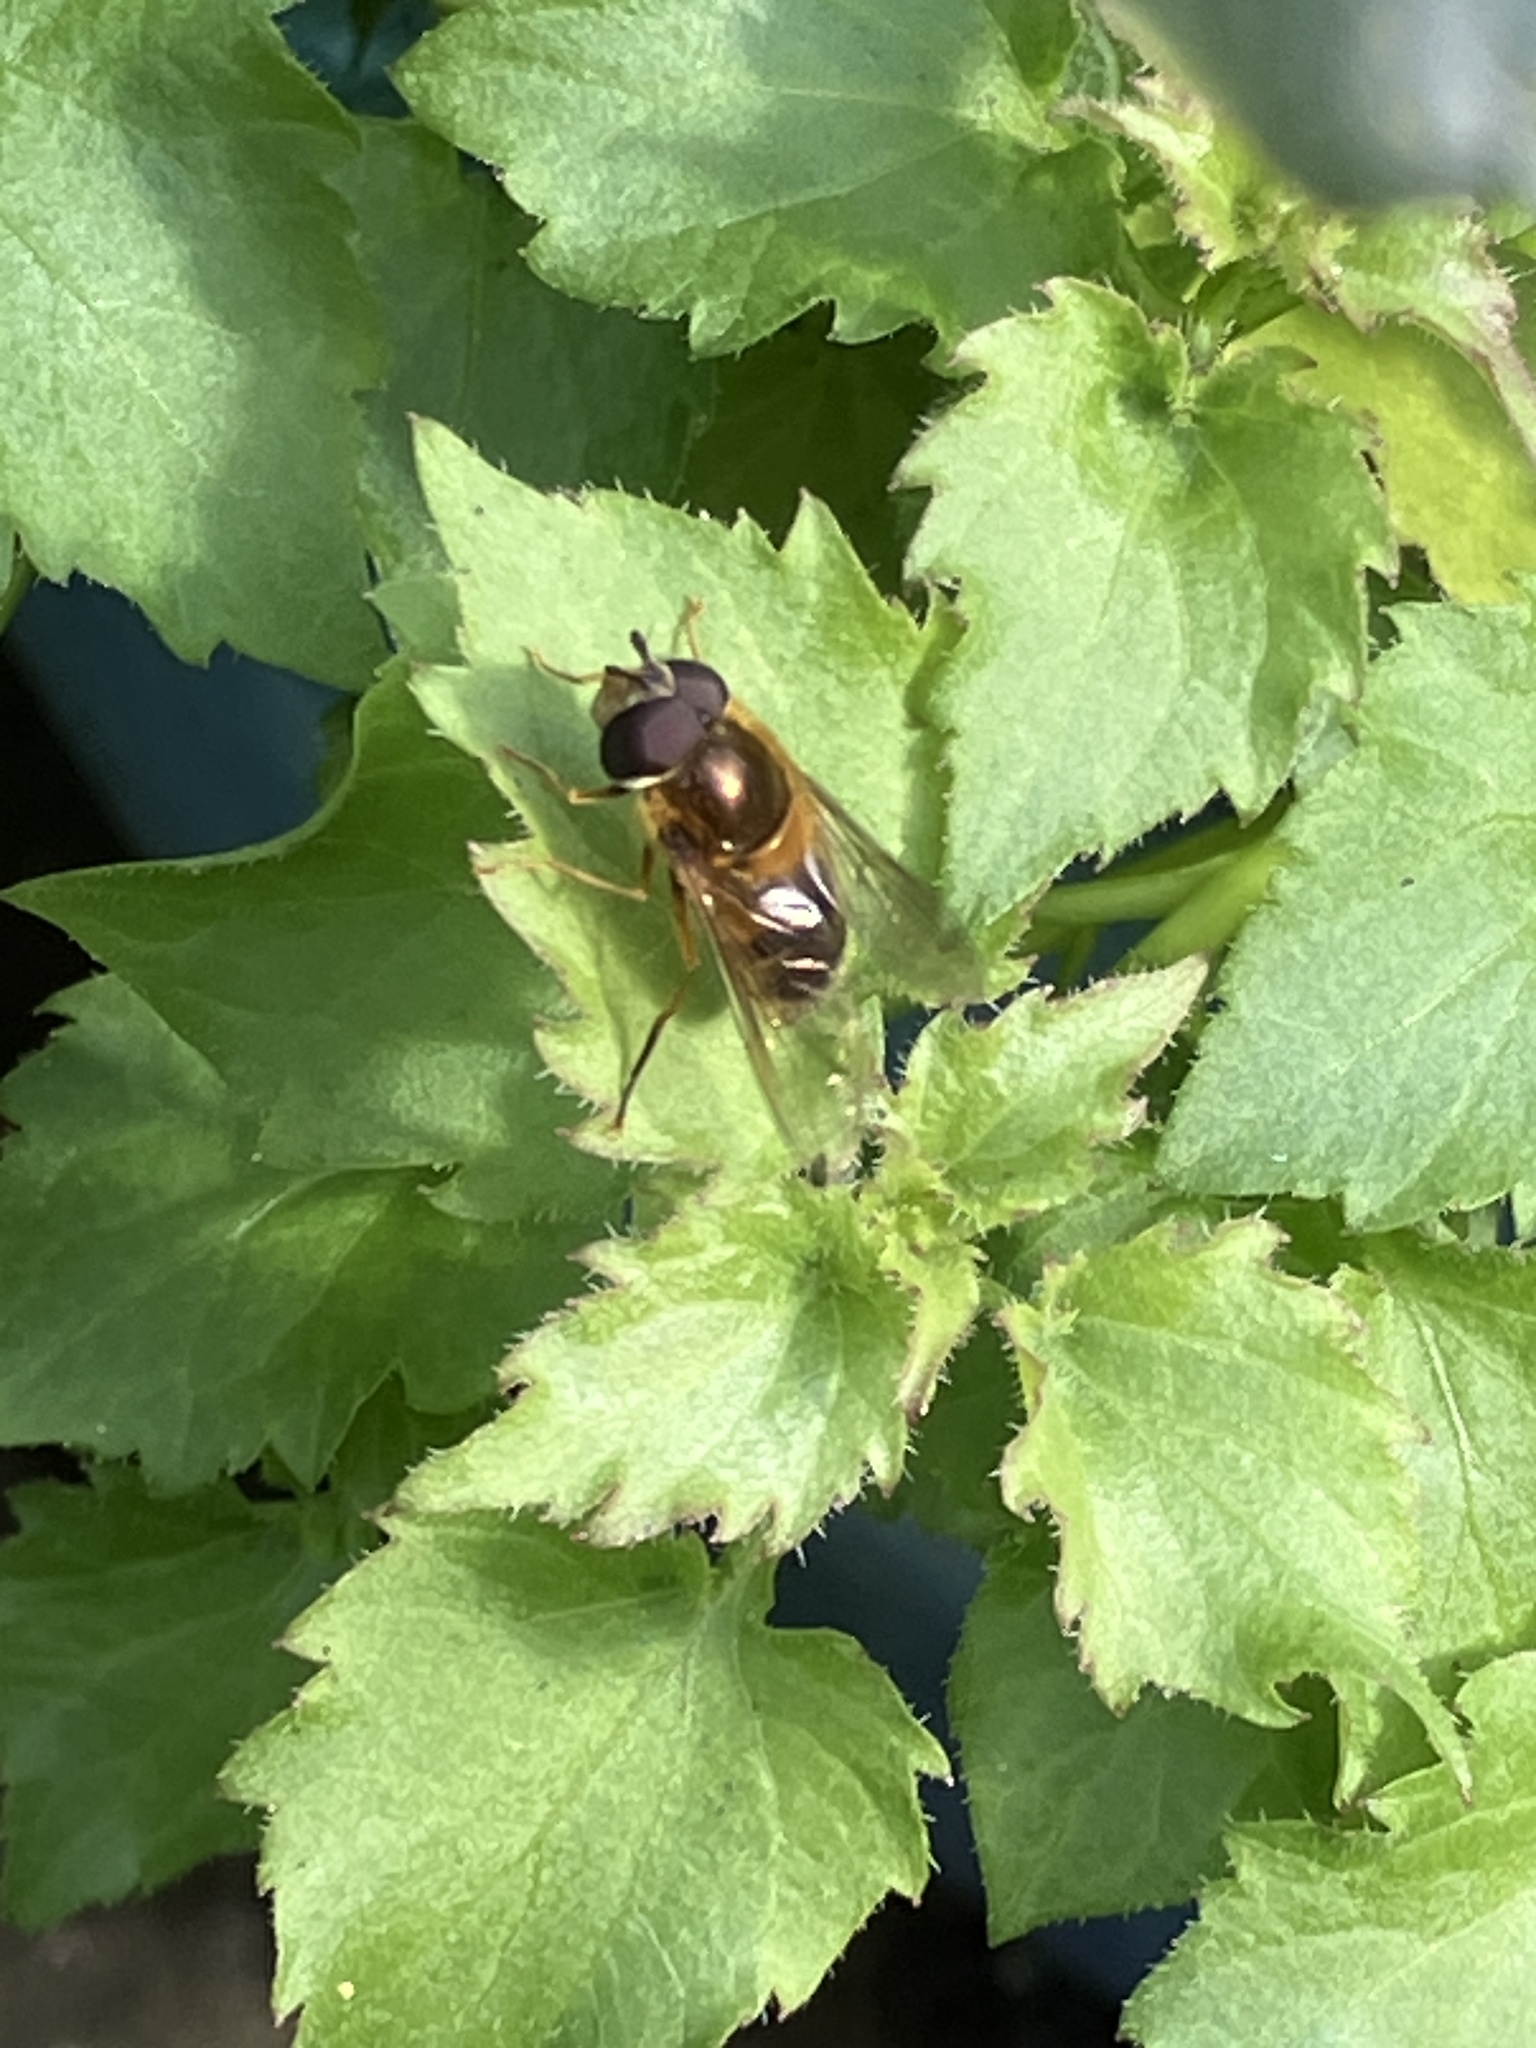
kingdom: Animalia
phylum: Arthropoda
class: Insecta
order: Diptera
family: Syrphidae
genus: Epistrophe
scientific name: Epistrophe eligans
